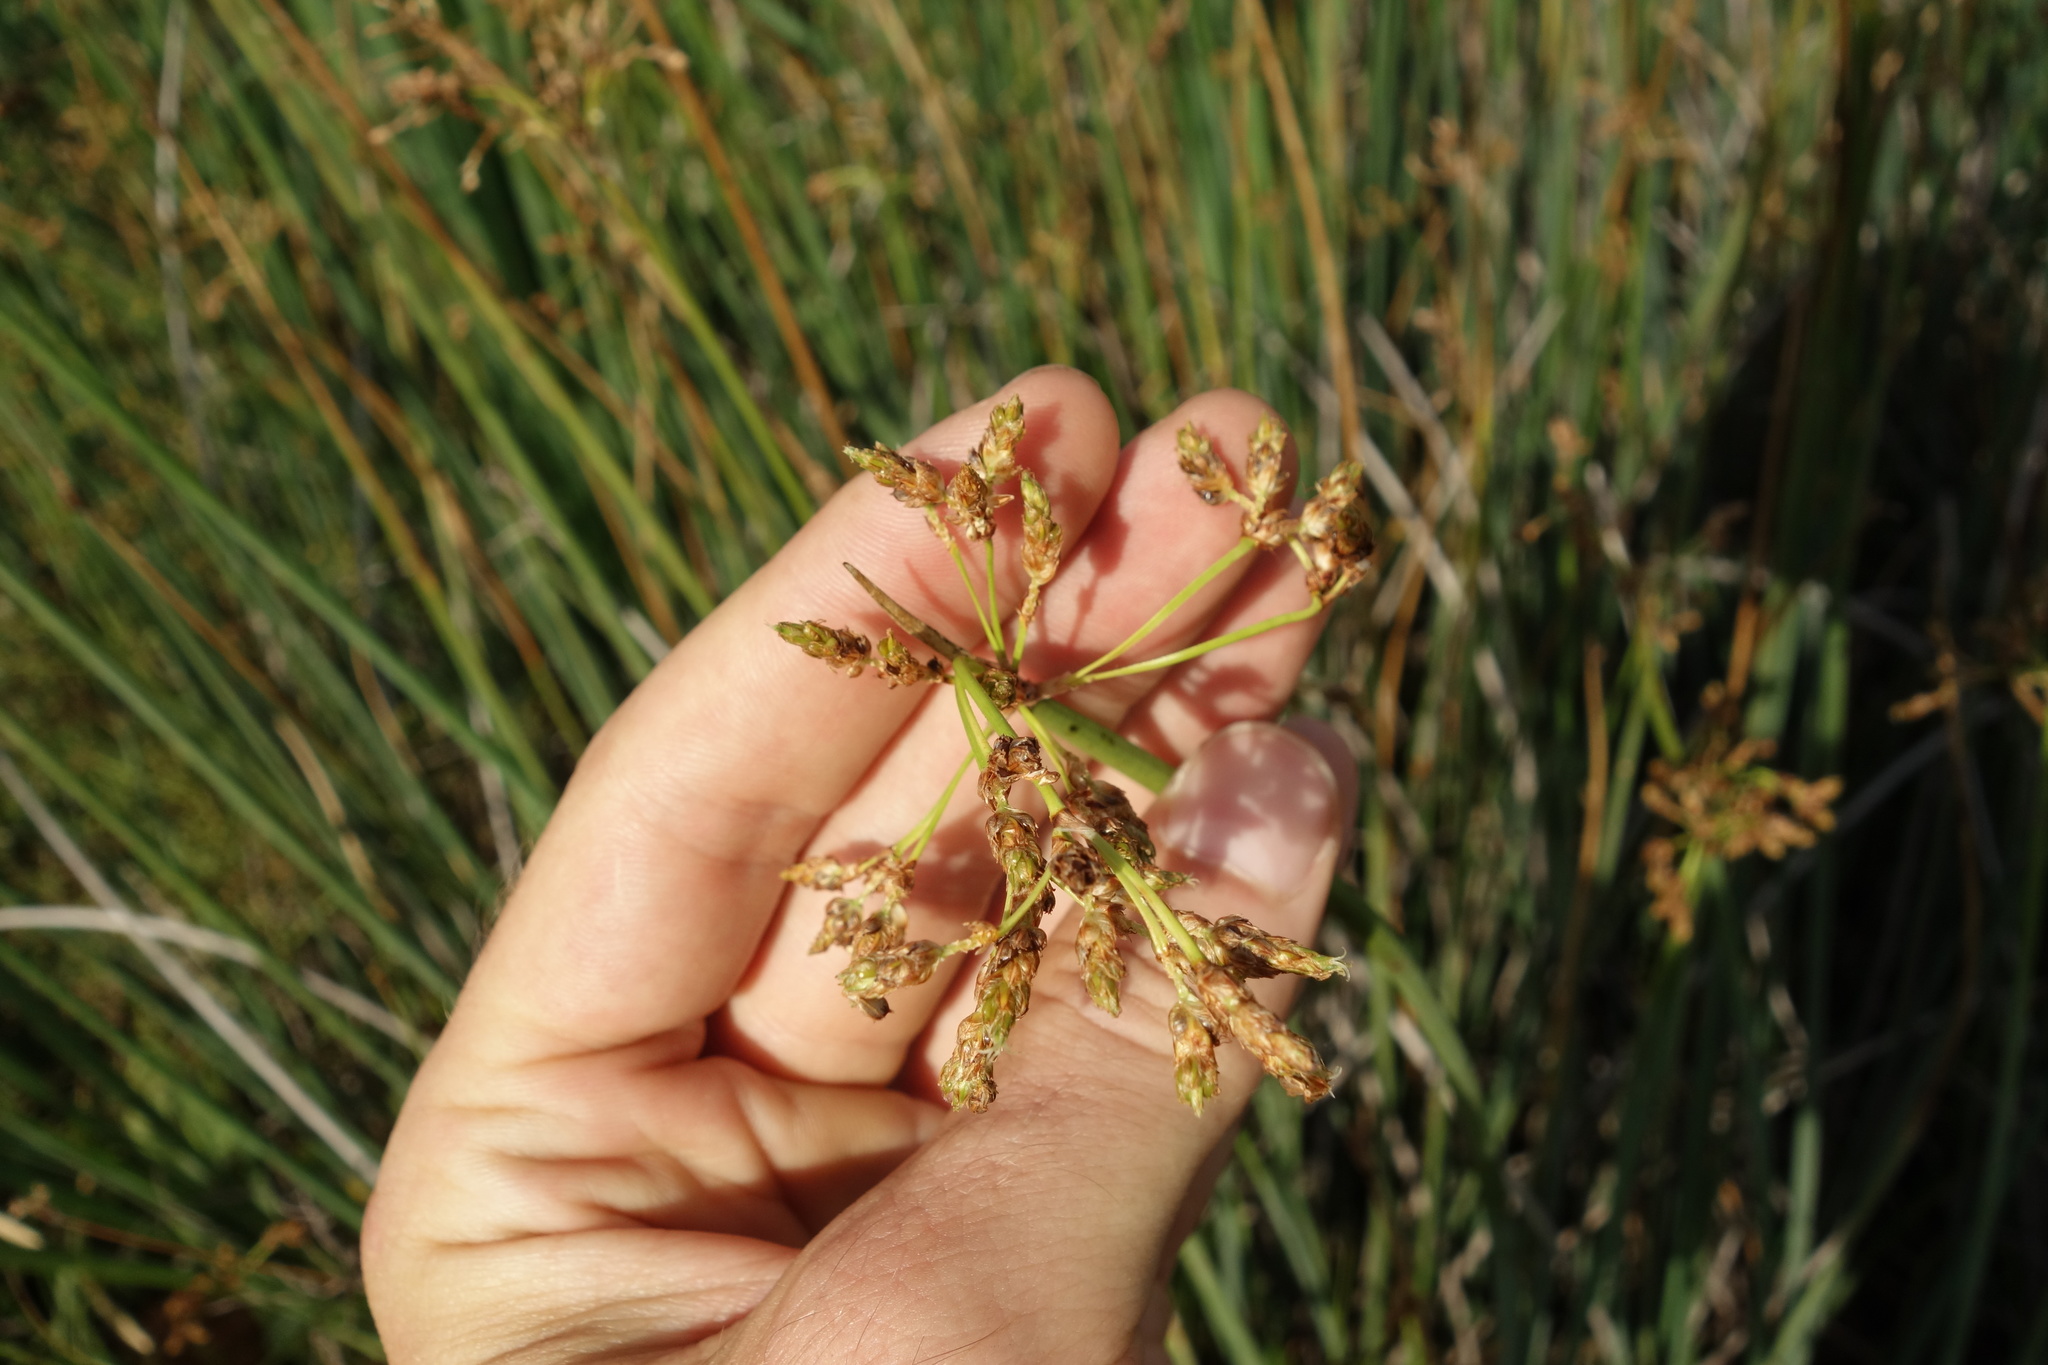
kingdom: Plantae
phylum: Tracheophyta
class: Liliopsida
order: Poales
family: Cyperaceae
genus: Schoenoplectus
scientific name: Schoenoplectus lacustris
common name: Common club-rush
